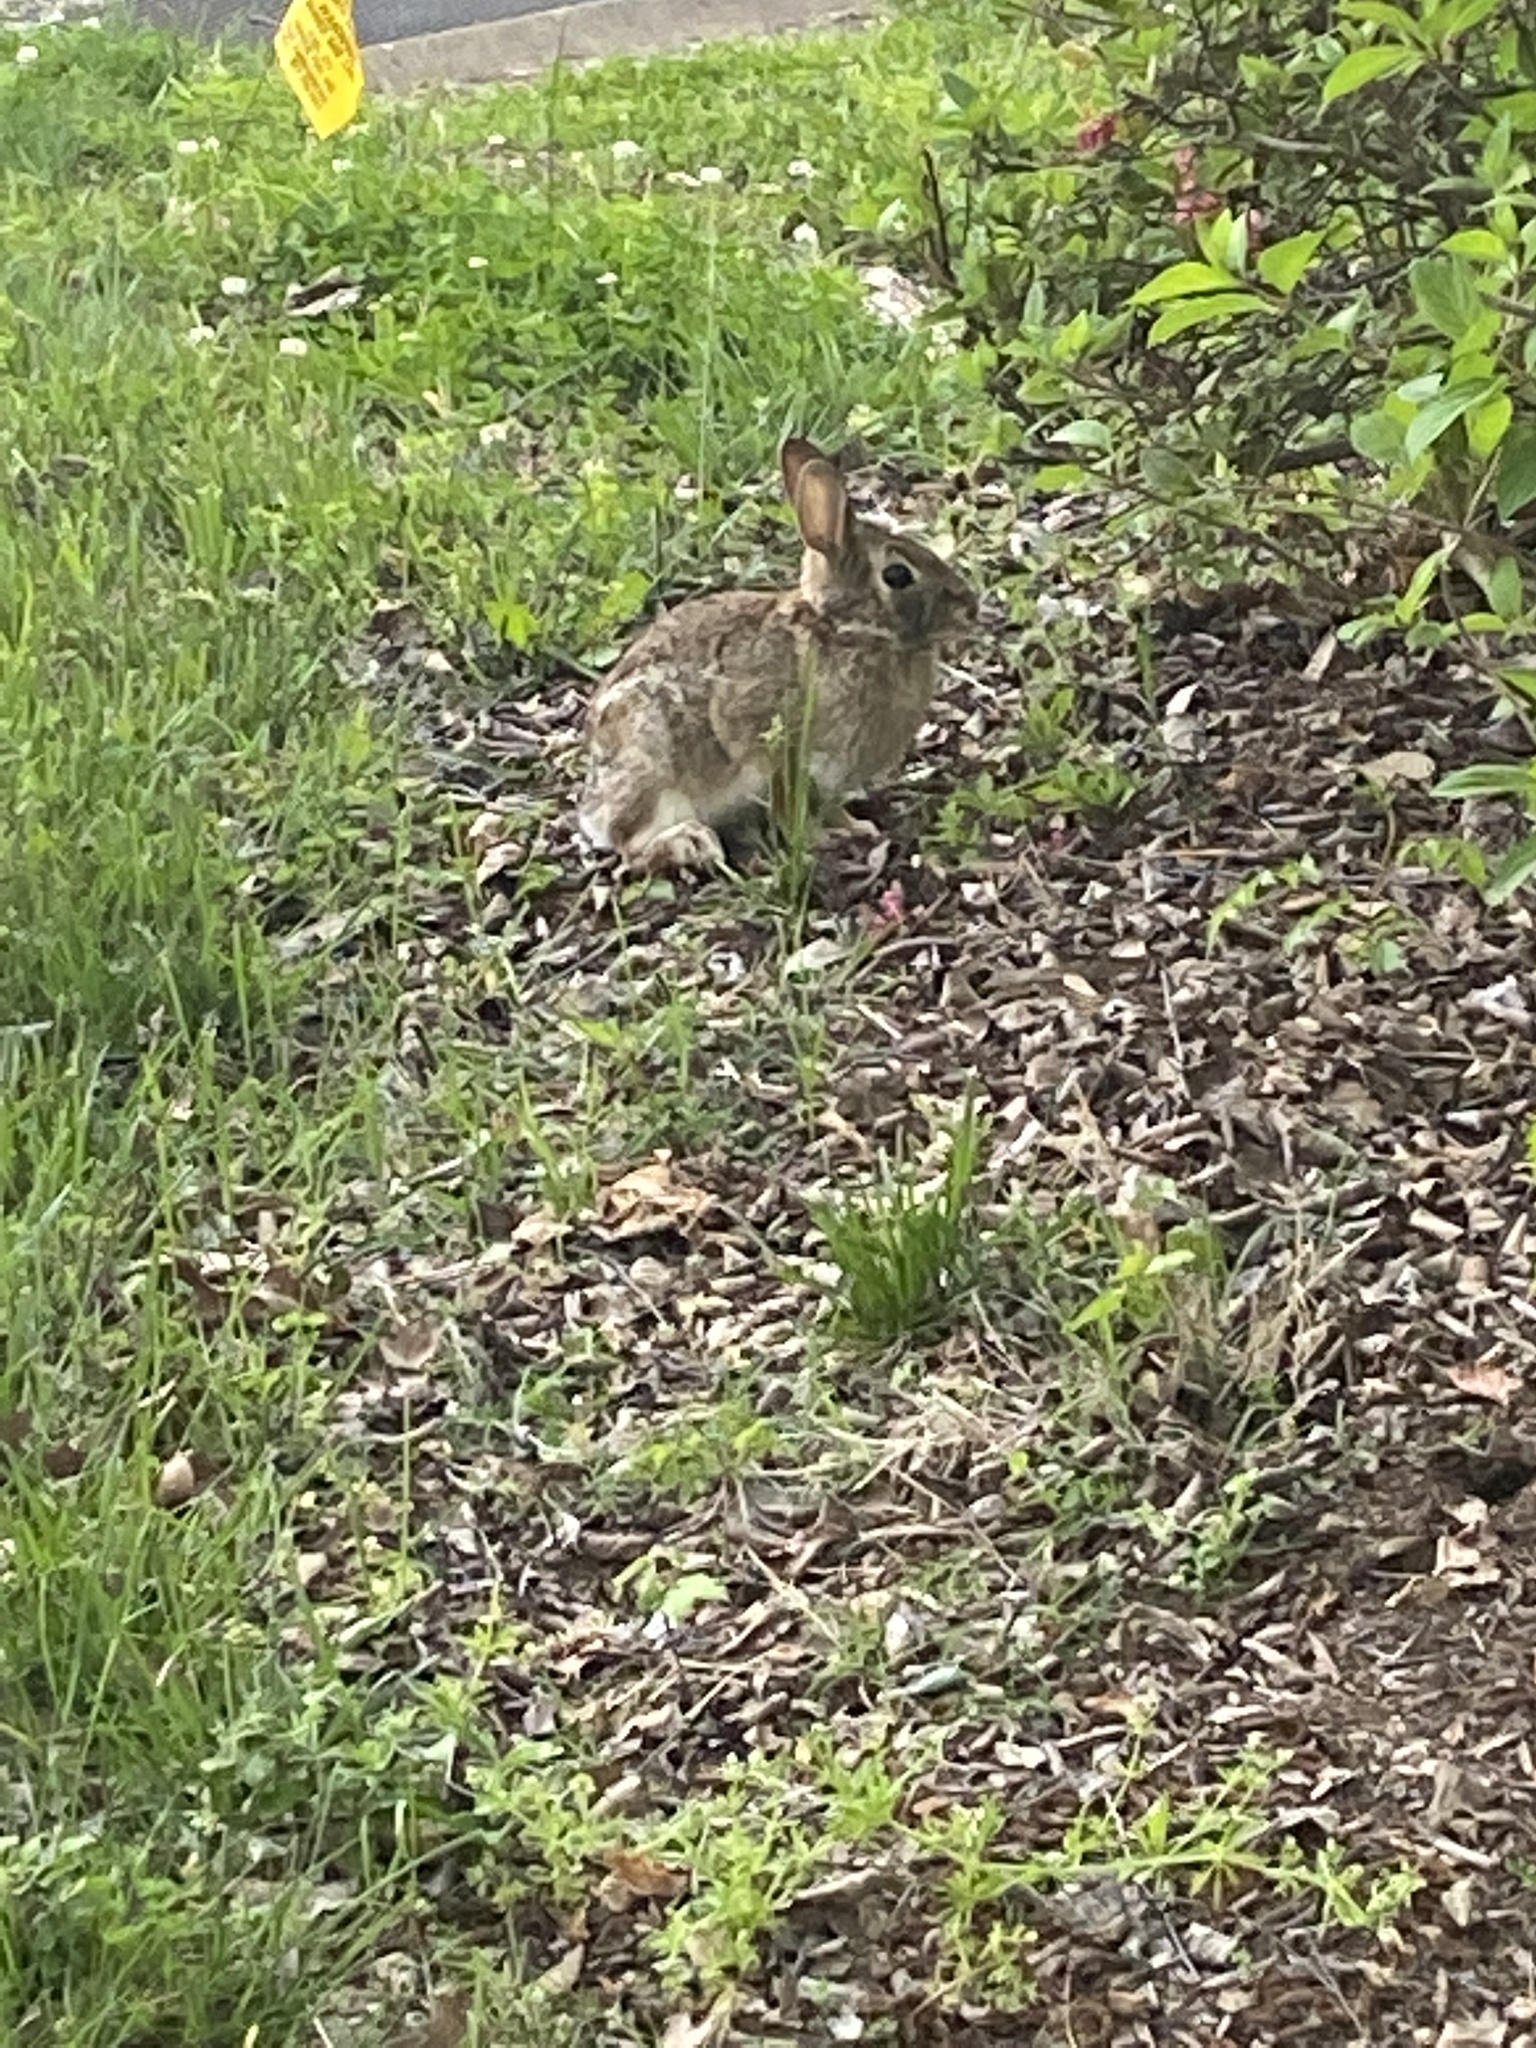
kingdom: Animalia
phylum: Chordata
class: Mammalia
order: Lagomorpha
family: Leporidae
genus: Sylvilagus
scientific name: Sylvilagus floridanus
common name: Eastern cottontail
